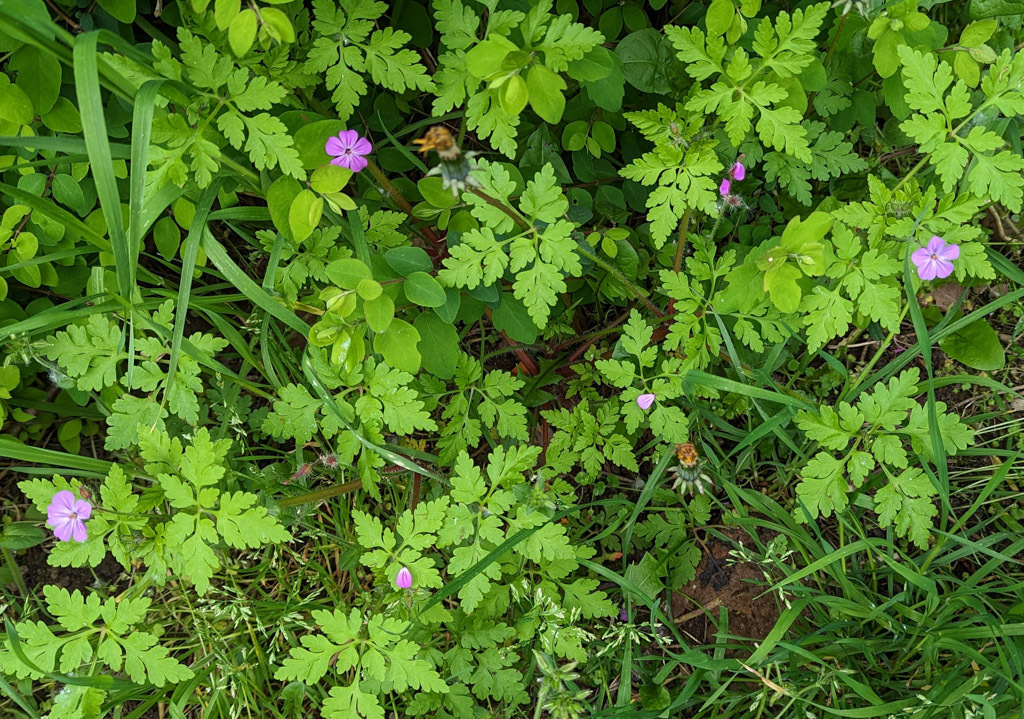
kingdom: Plantae
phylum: Tracheophyta
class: Magnoliopsida
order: Geraniales
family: Geraniaceae
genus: Geranium
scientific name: Geranium robertianum
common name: Herb-robert
